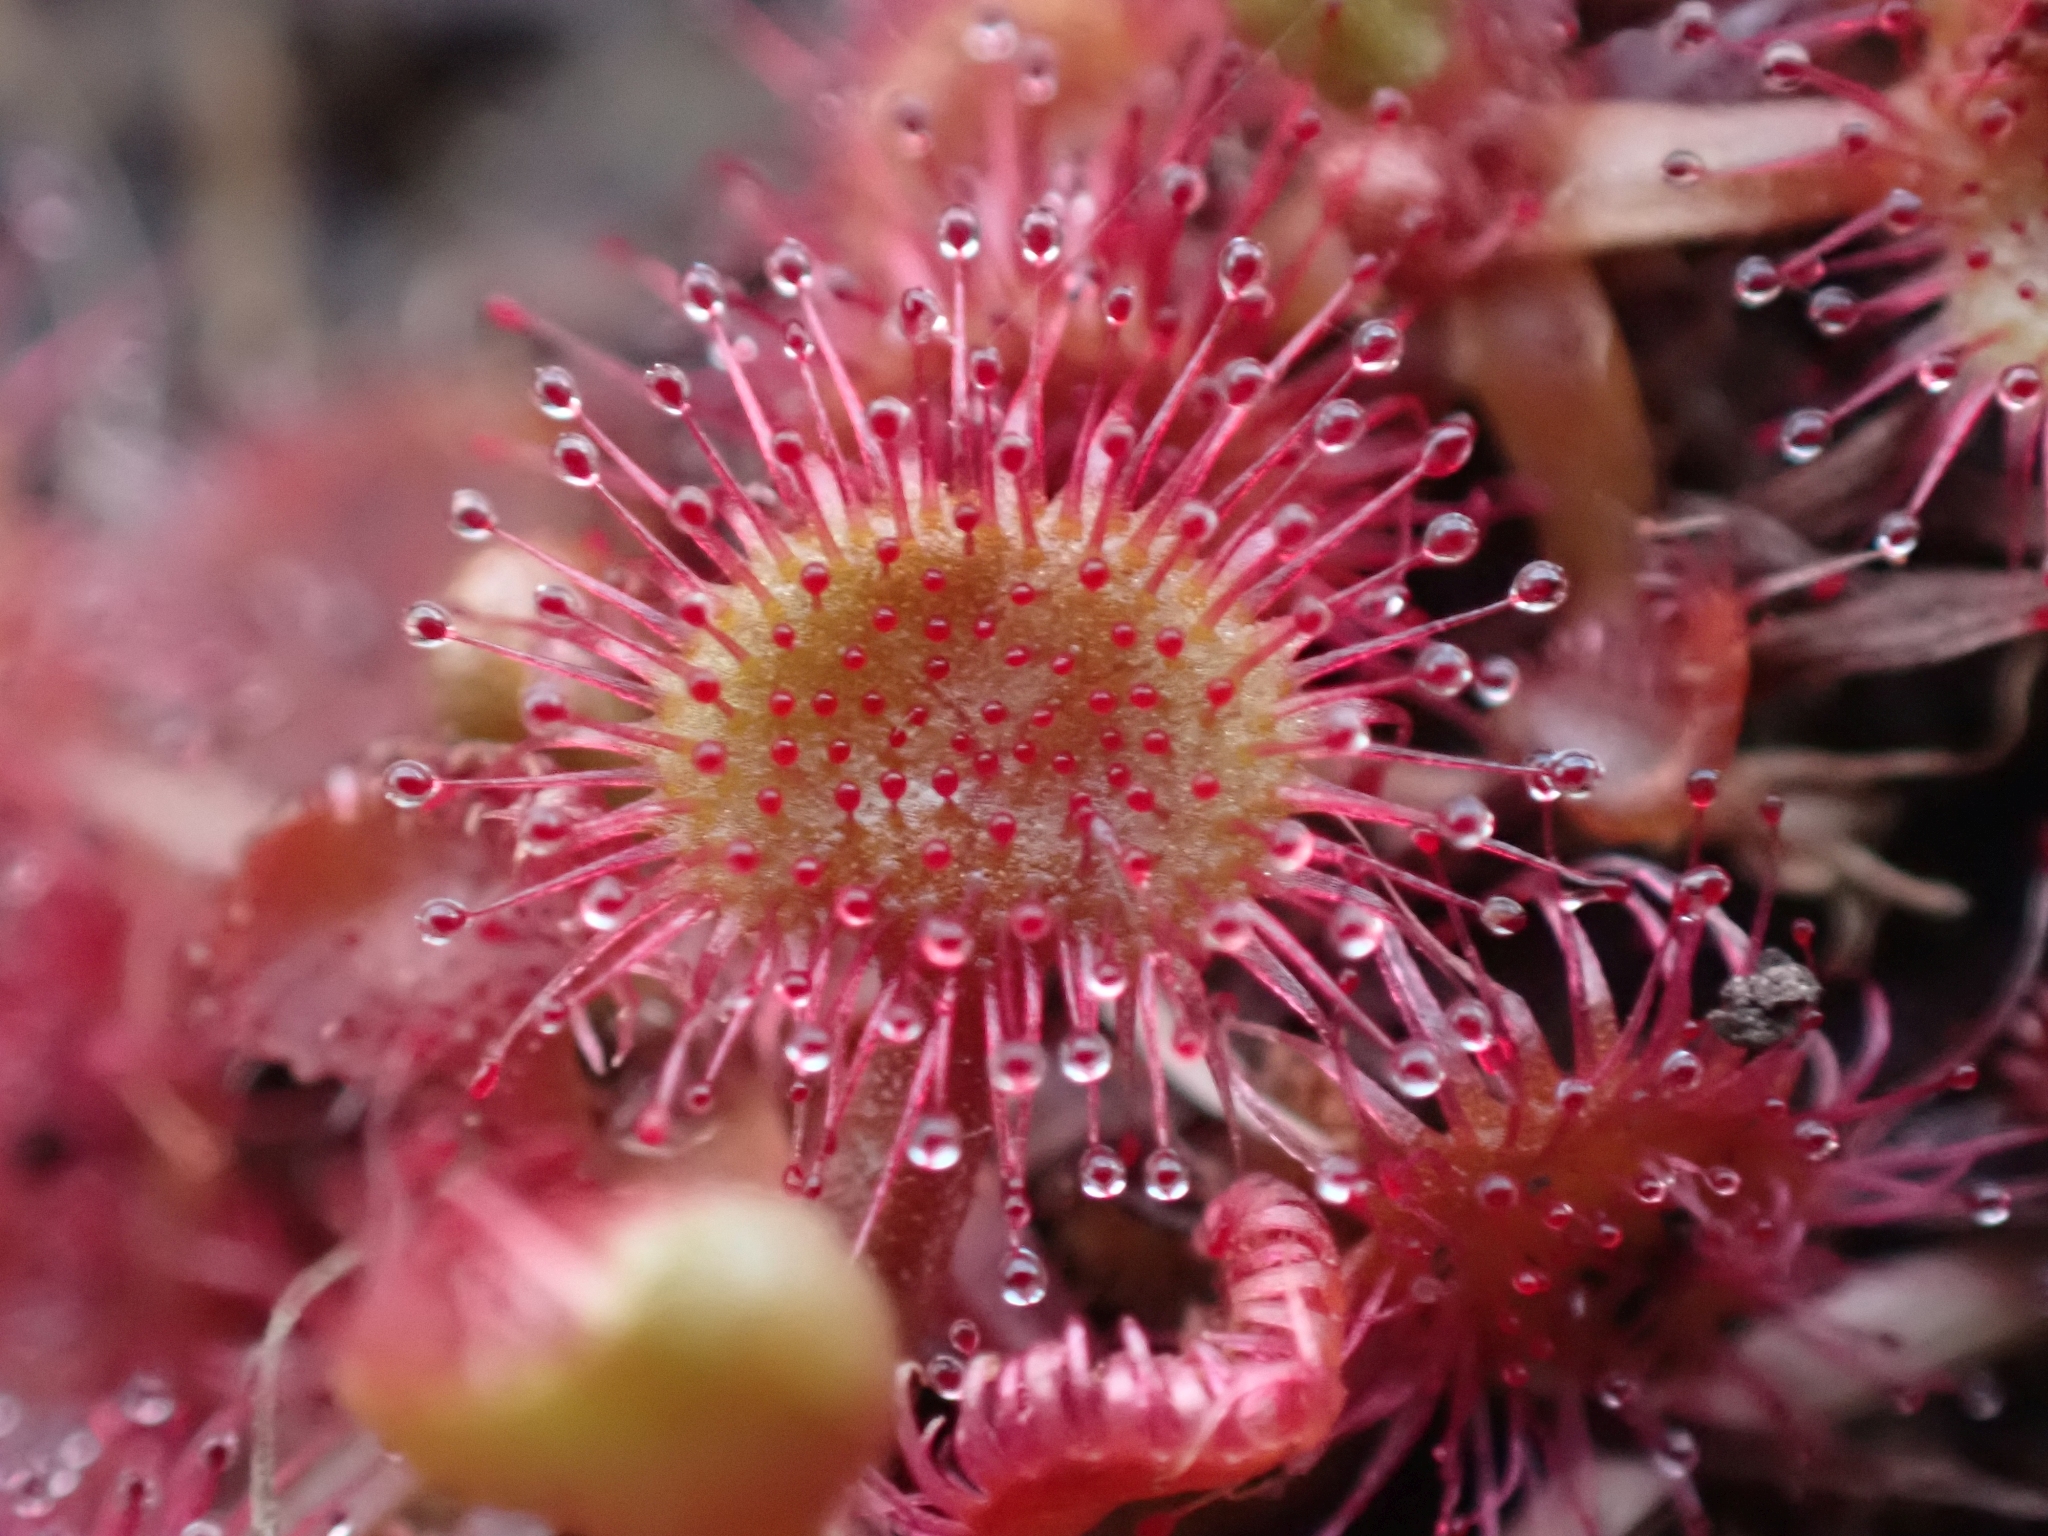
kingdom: Plantae
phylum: Tracheophyta
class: Magnoliopsida
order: Caryophyllales
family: Droseraceae
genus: Drosera
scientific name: Drosera rotundifolia
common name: Round-leaved sundew
